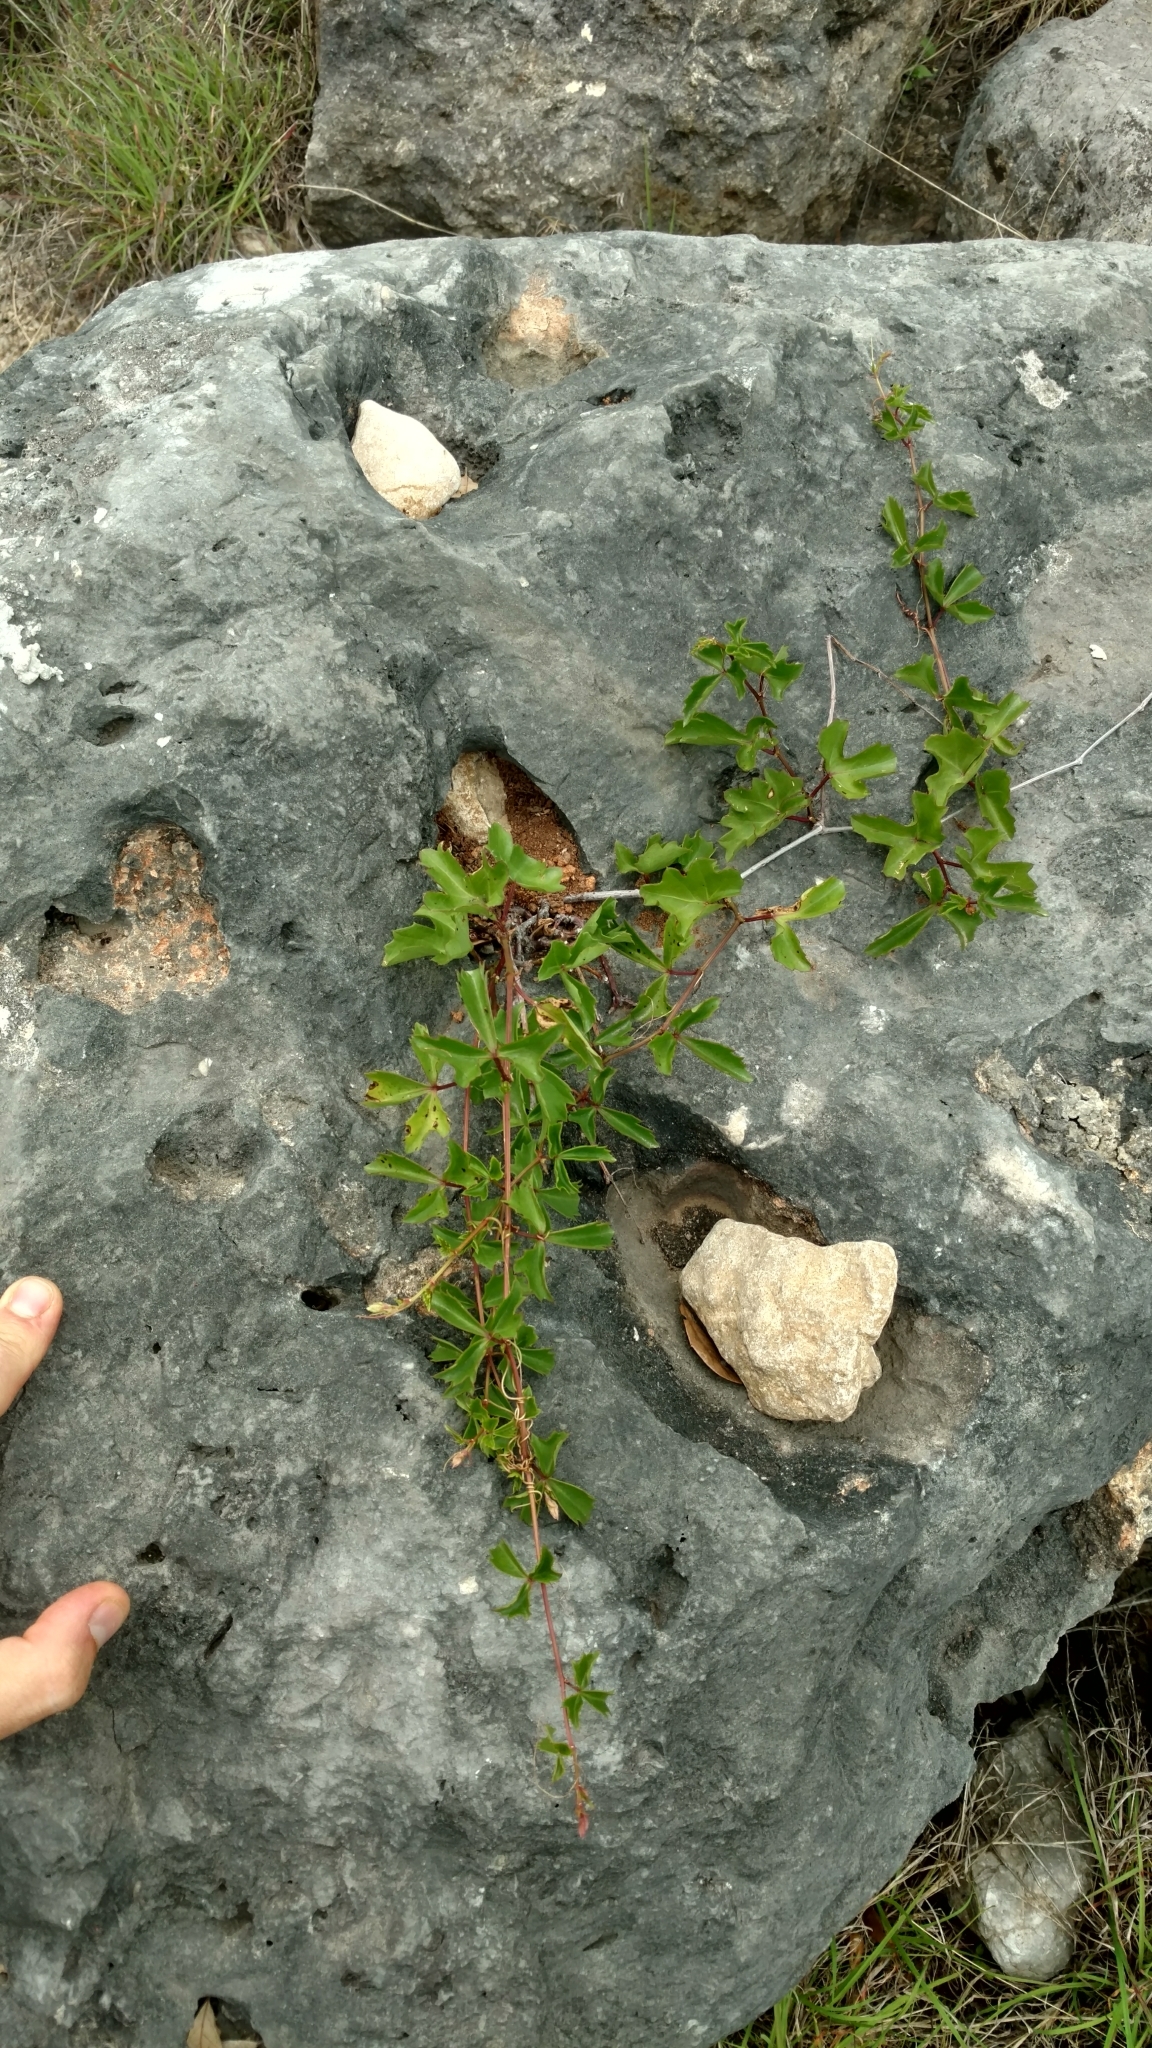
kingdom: Plantae
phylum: Tracheophyta
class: Magnoliopsida
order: Vitales
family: Vitaceae
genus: Cissus
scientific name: Cissus trifoliata
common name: Vine-sorrel
